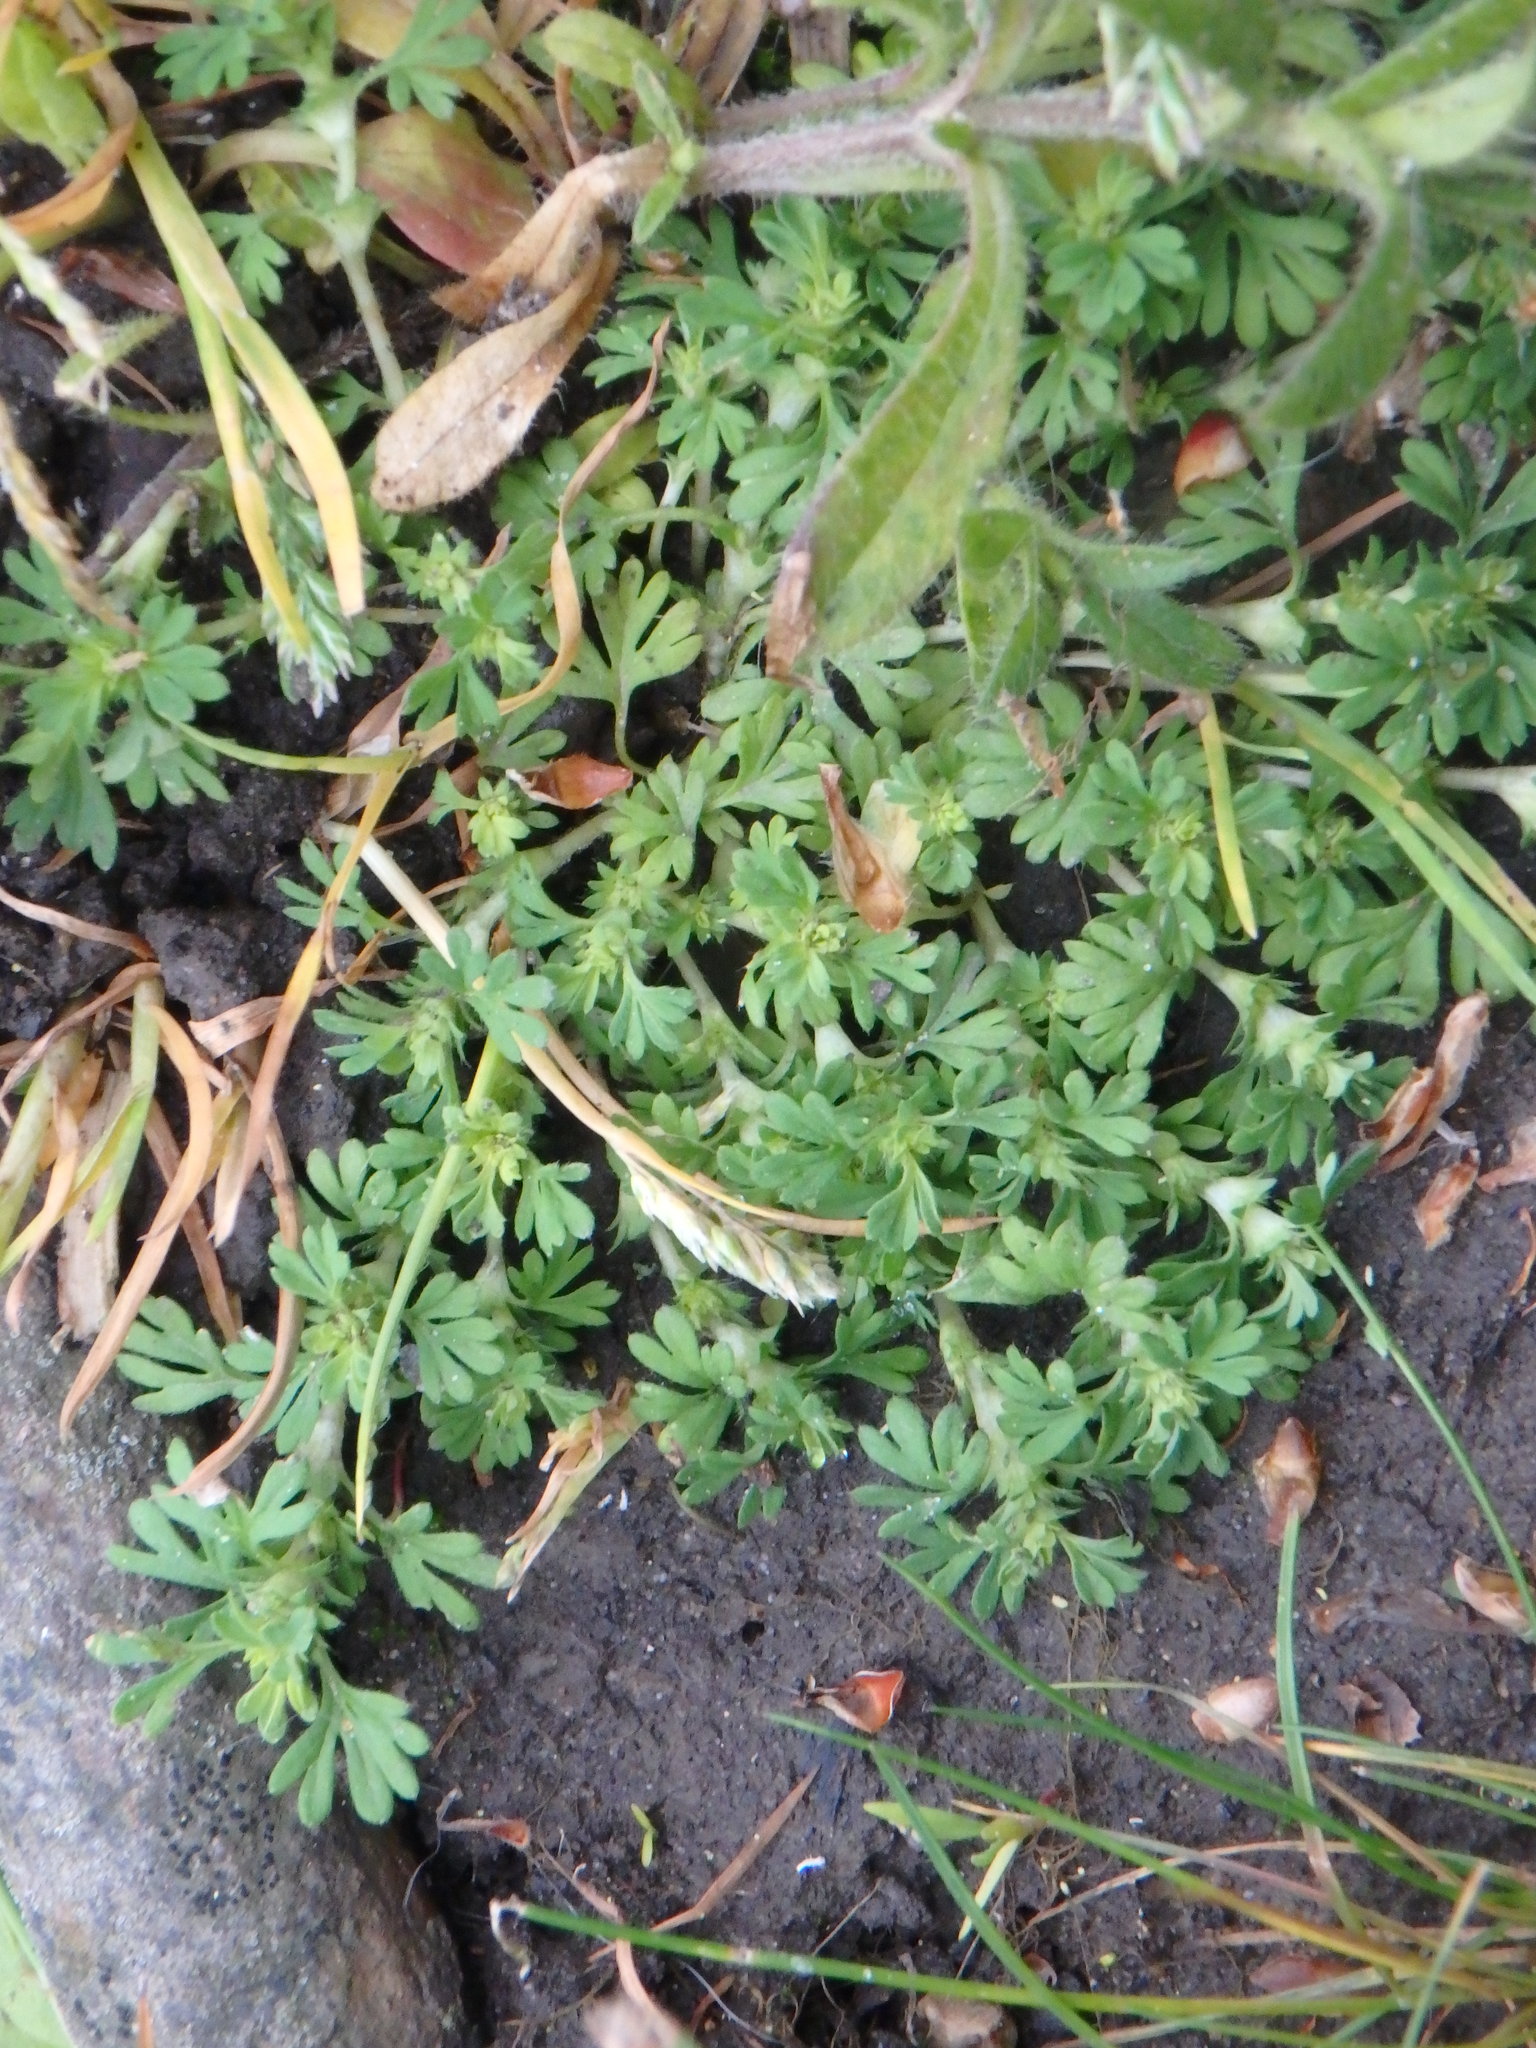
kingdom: Plantae
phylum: Tracheophyta
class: Magnoliopsida
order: Brassicales
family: Brassicaceae
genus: Lepidium
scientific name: Lepidium didymum
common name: Lesser swinecress
